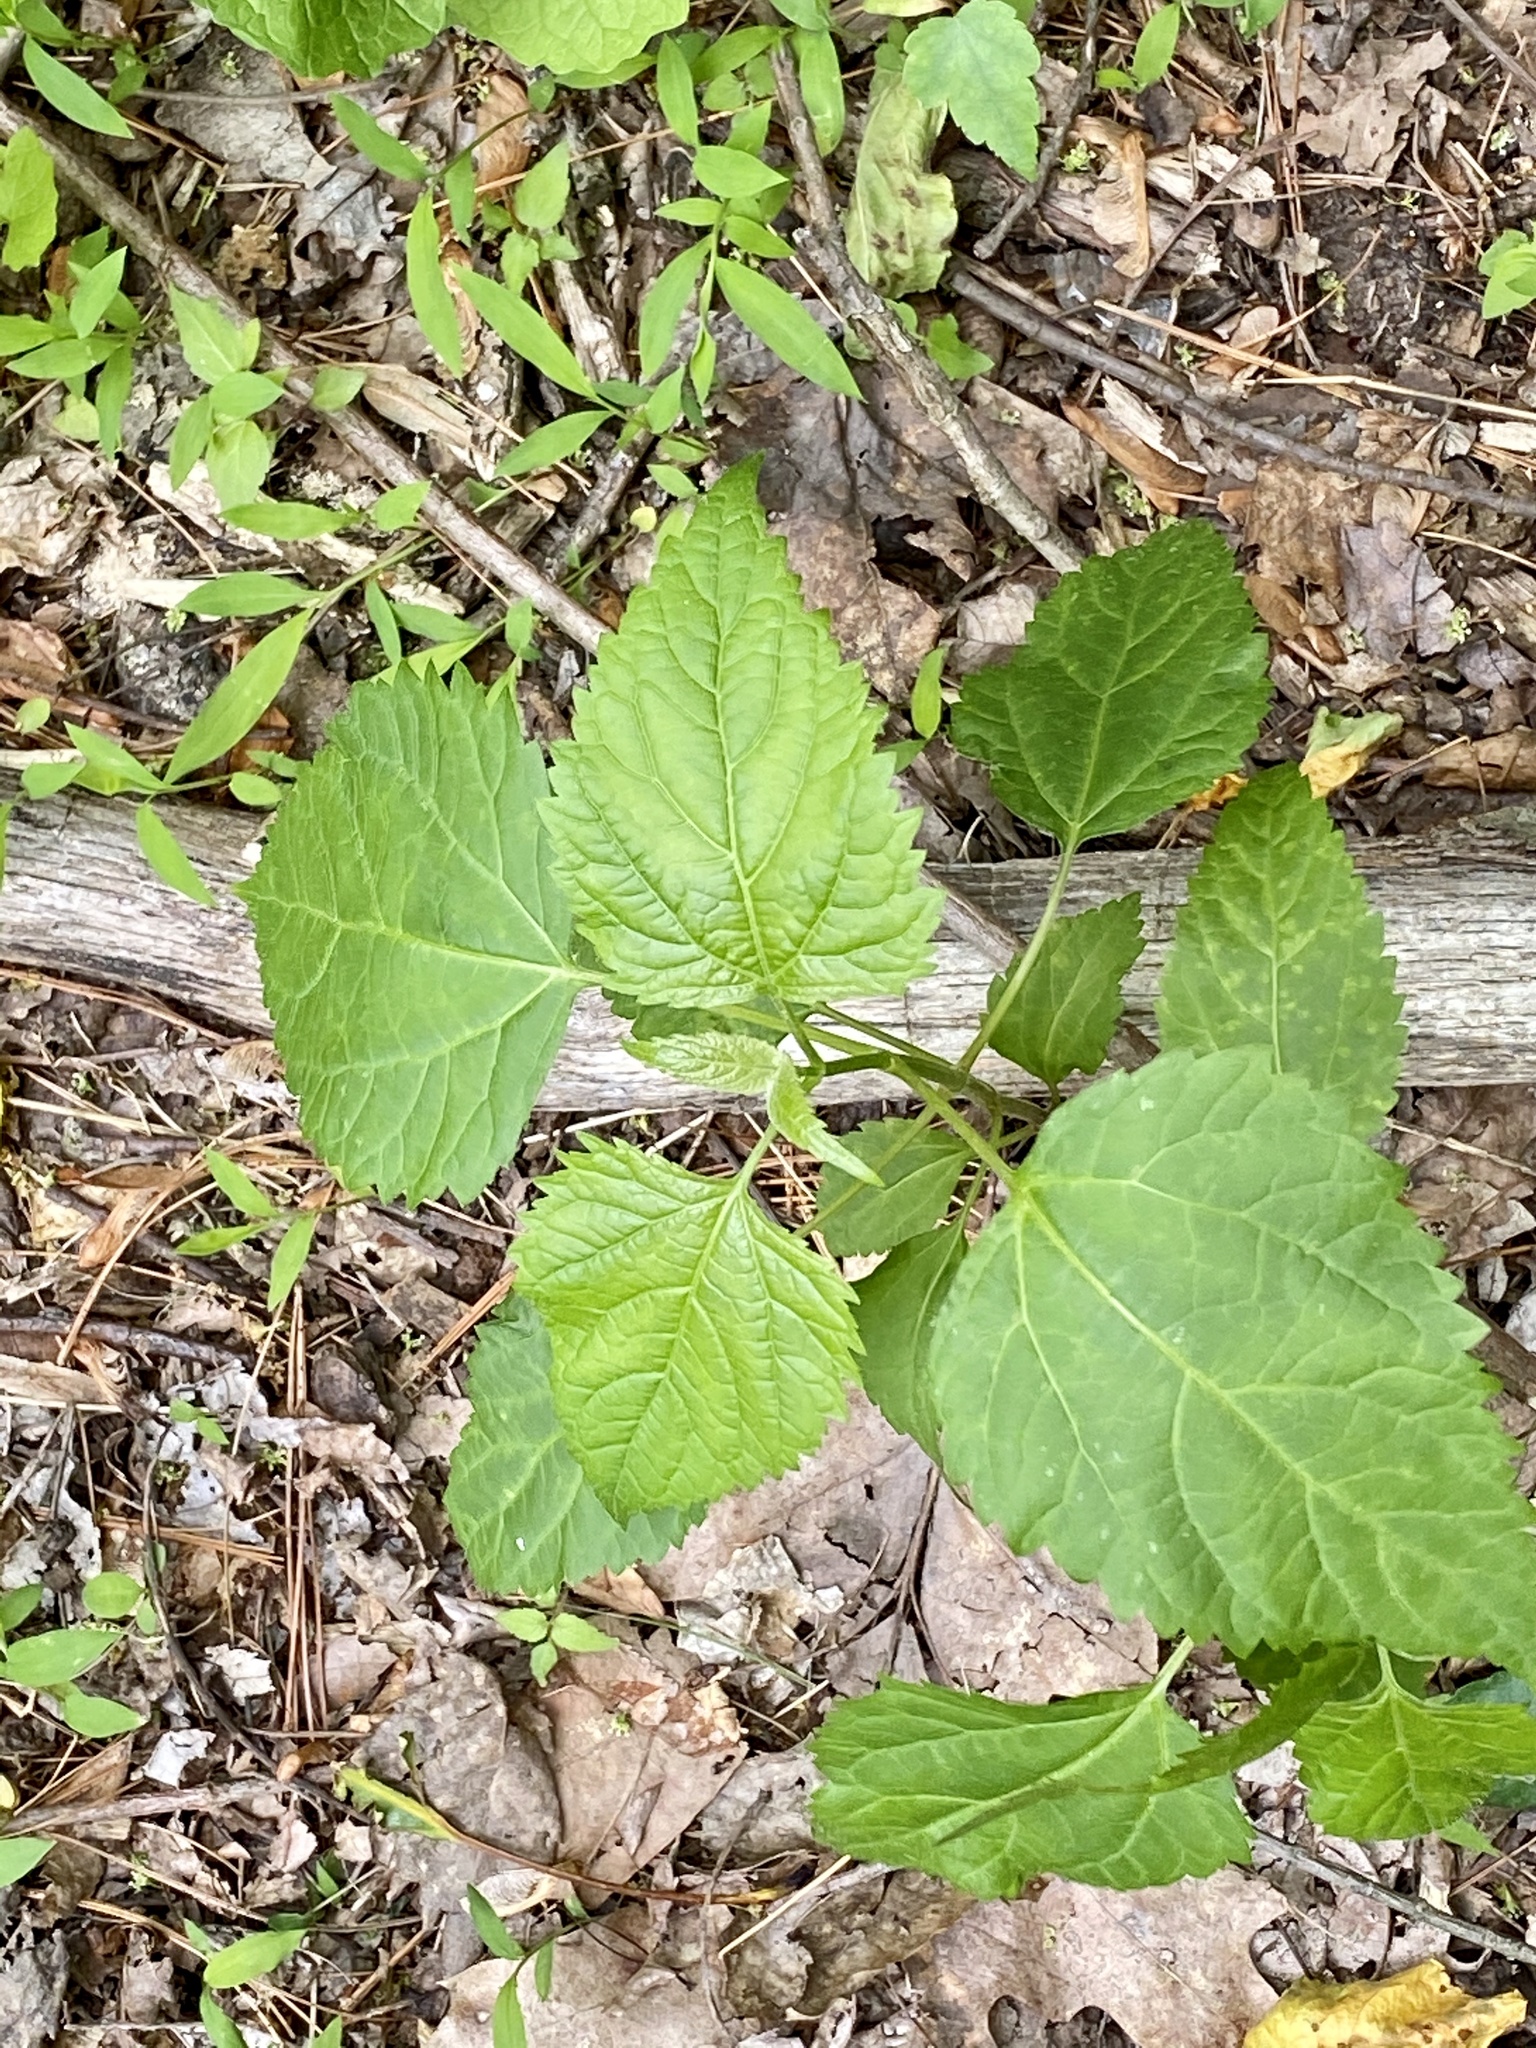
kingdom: Plantae
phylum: Tracheophyta
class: Magnoliopsida
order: Asterales
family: Asteraceae
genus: Ageratina
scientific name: Ageratina altissima
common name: White snakeroot
